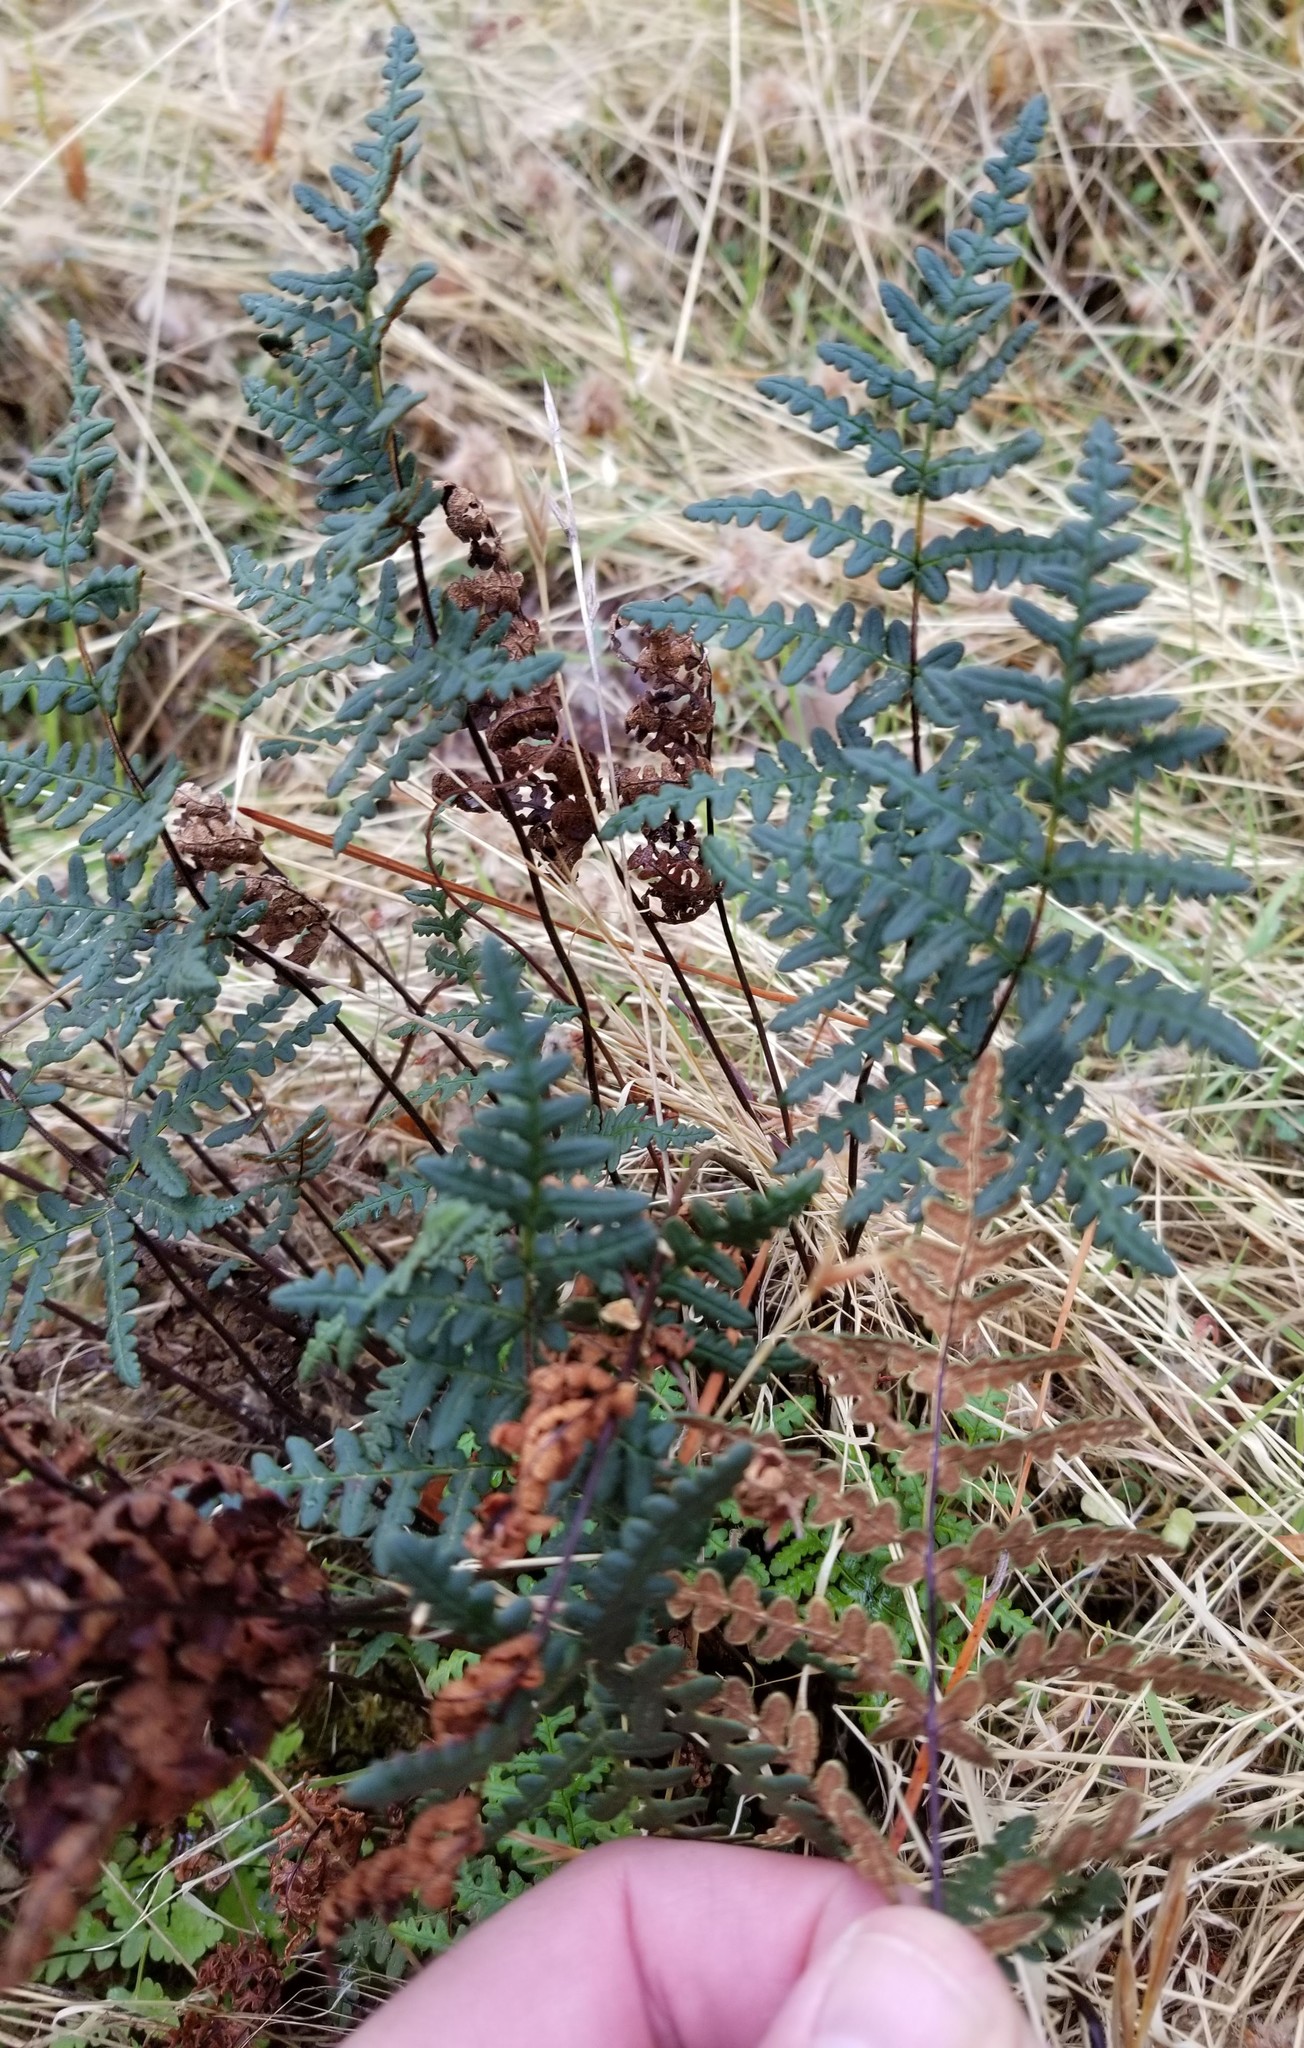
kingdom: Plantae
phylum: Tracheophyta
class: Polypodiopsida
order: Polypodiales
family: Pteridaceae
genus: Pentagramma
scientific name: Pentagramma triangularis
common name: Gold fern
